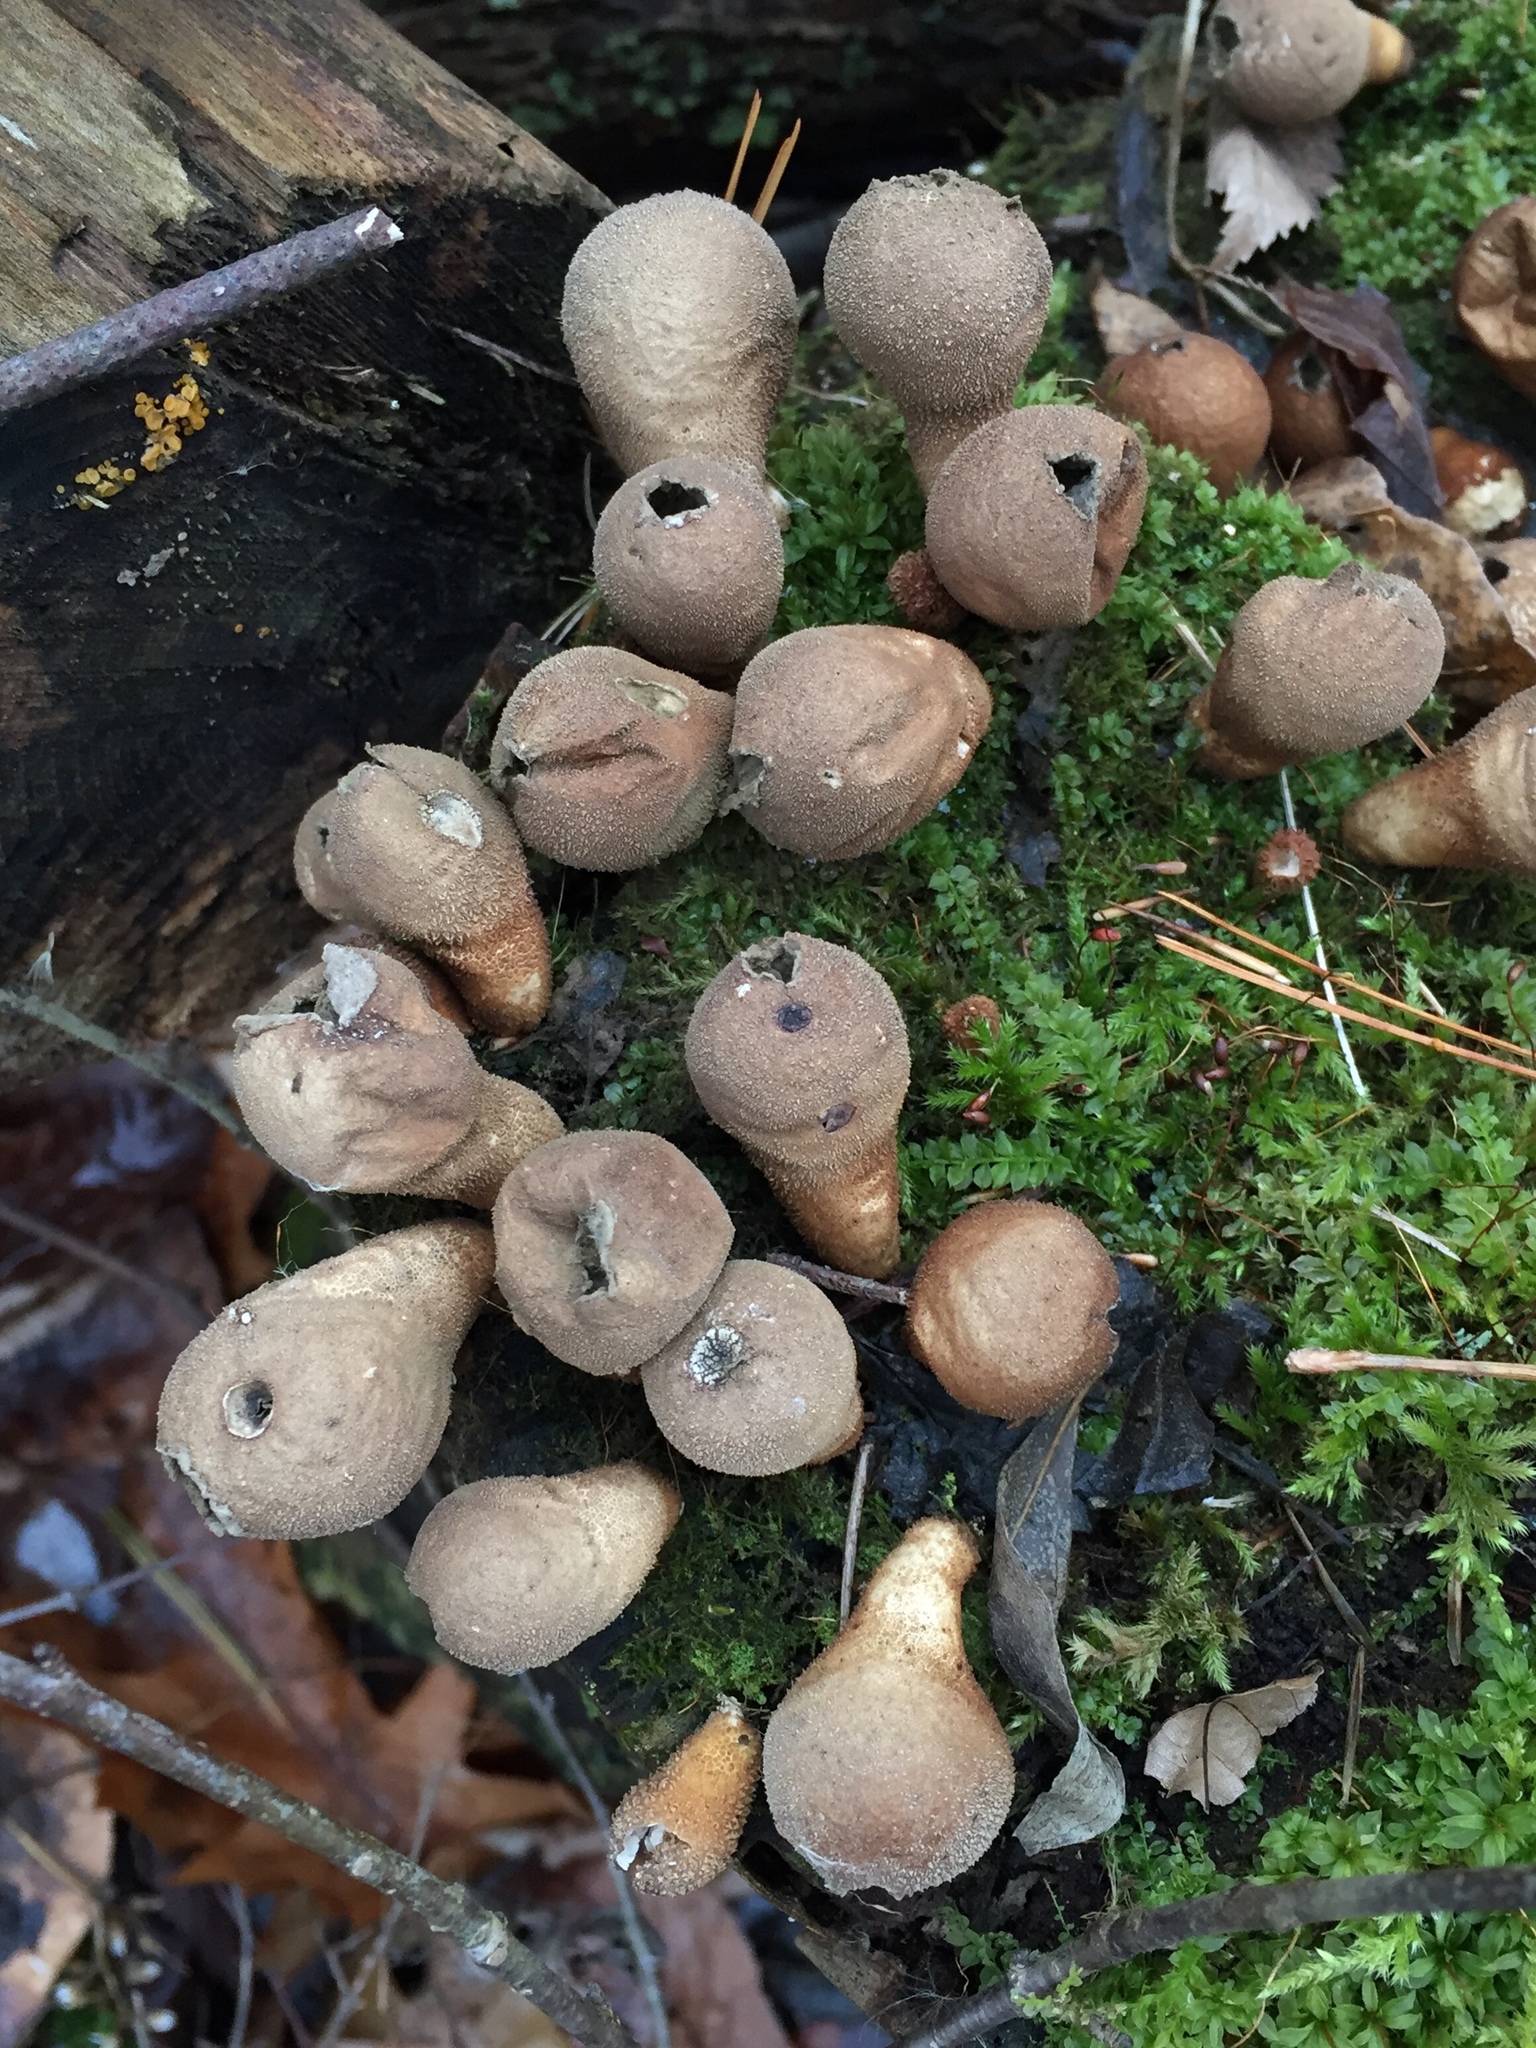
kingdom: Fungi
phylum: Basidiomycota
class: Agaricomycetes
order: Agaricales
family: Lycoperdaceae
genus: Apioperdon
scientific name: Apioperdon pyriforme
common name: Pear-shaped puffball
